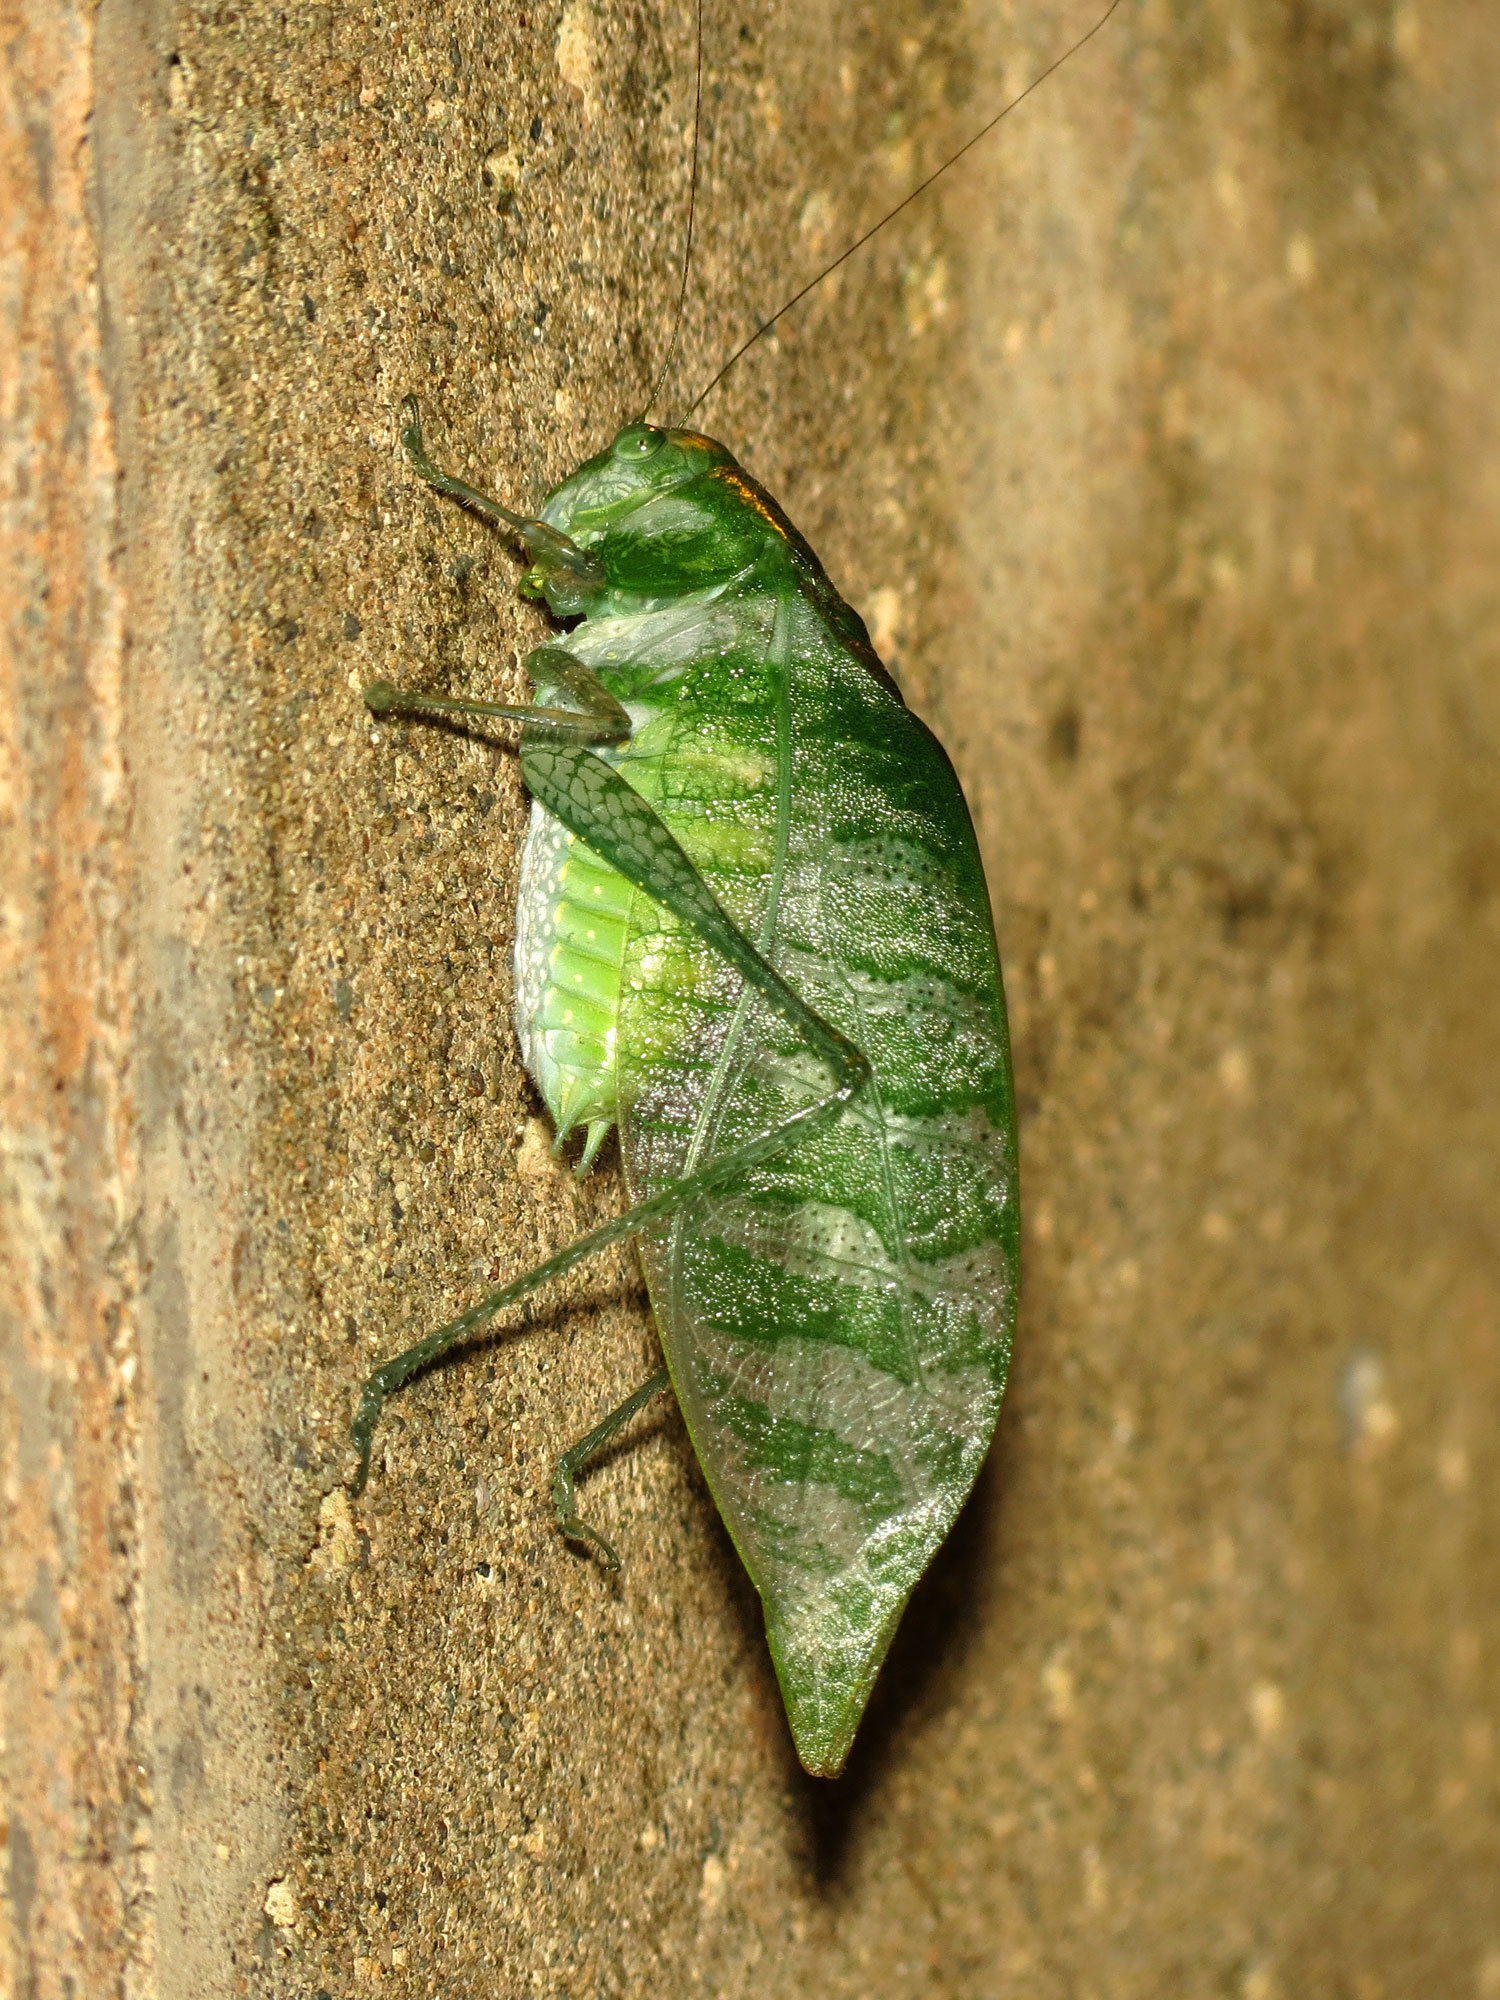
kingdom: Animalia
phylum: Arthropoda
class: Insecta
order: Orthoptera
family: Tettigoniidae
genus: Anapolisia
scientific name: Anapolisia colossea
